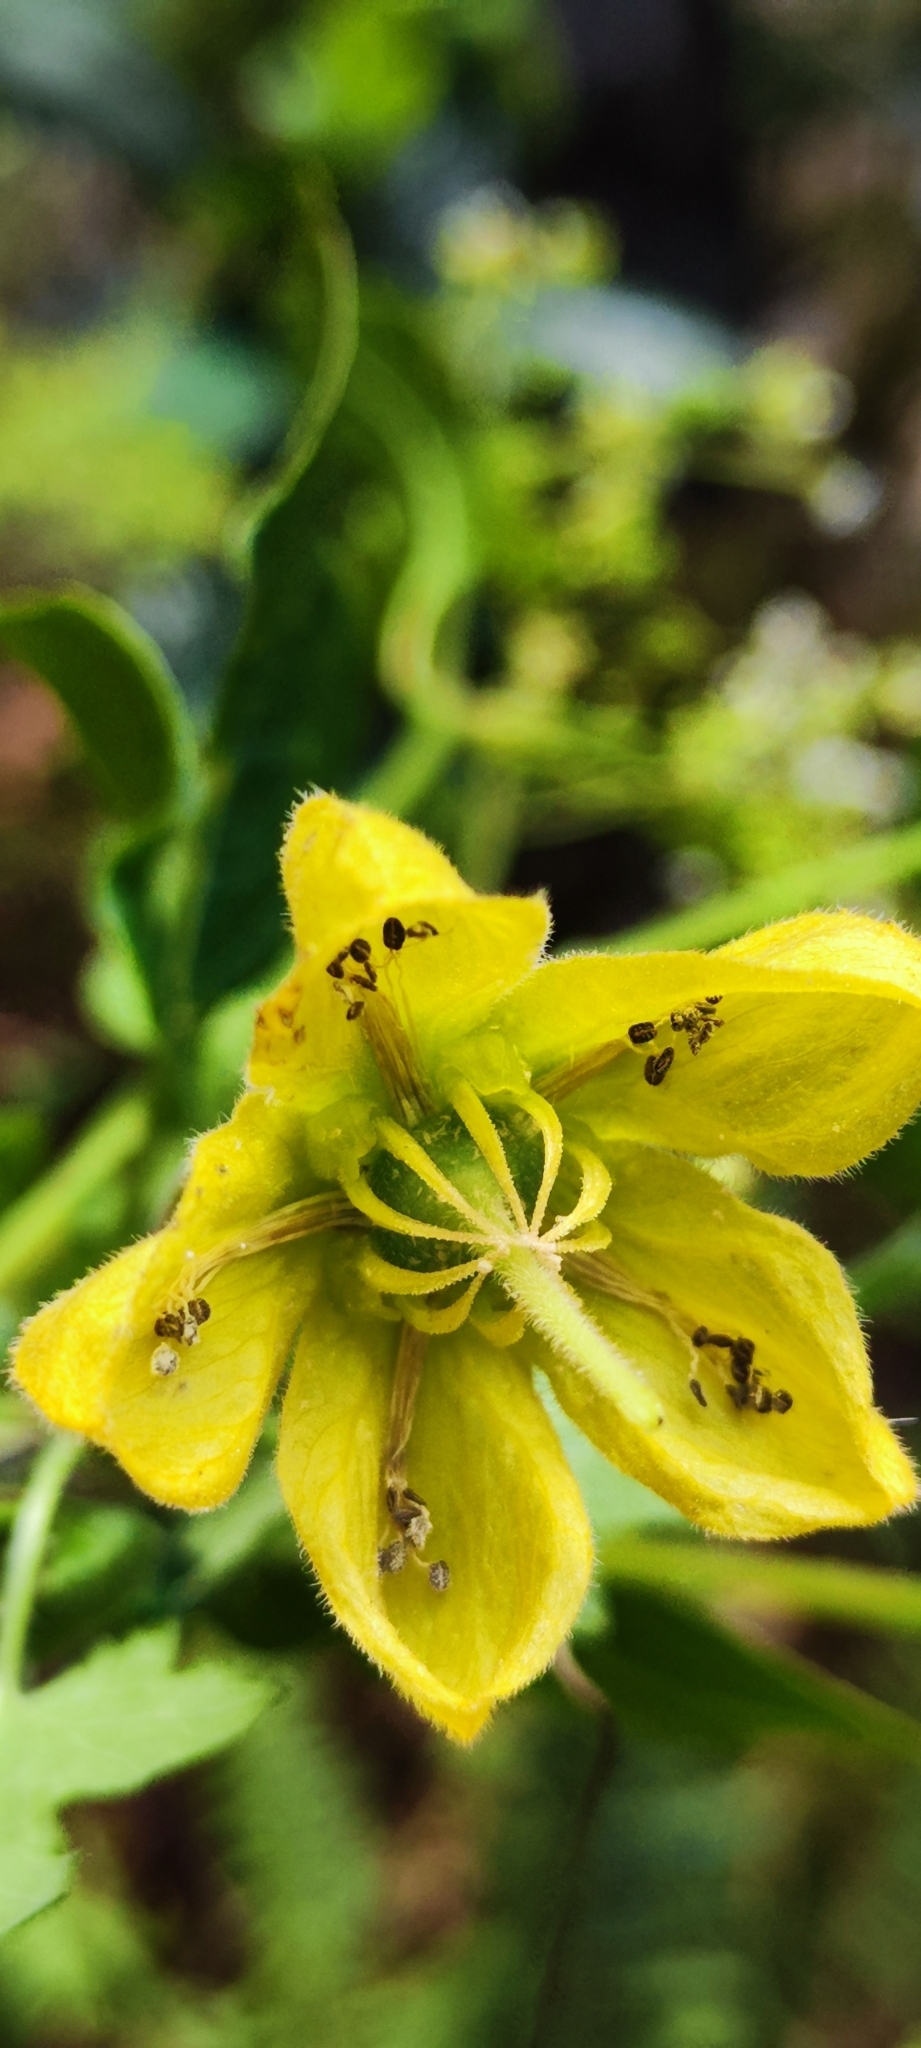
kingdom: Plantae
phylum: Tracheophyta
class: Magnoliopsida
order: Cornales
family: Loasaceae
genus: Caiophora
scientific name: Caiophora cirsiifolia
